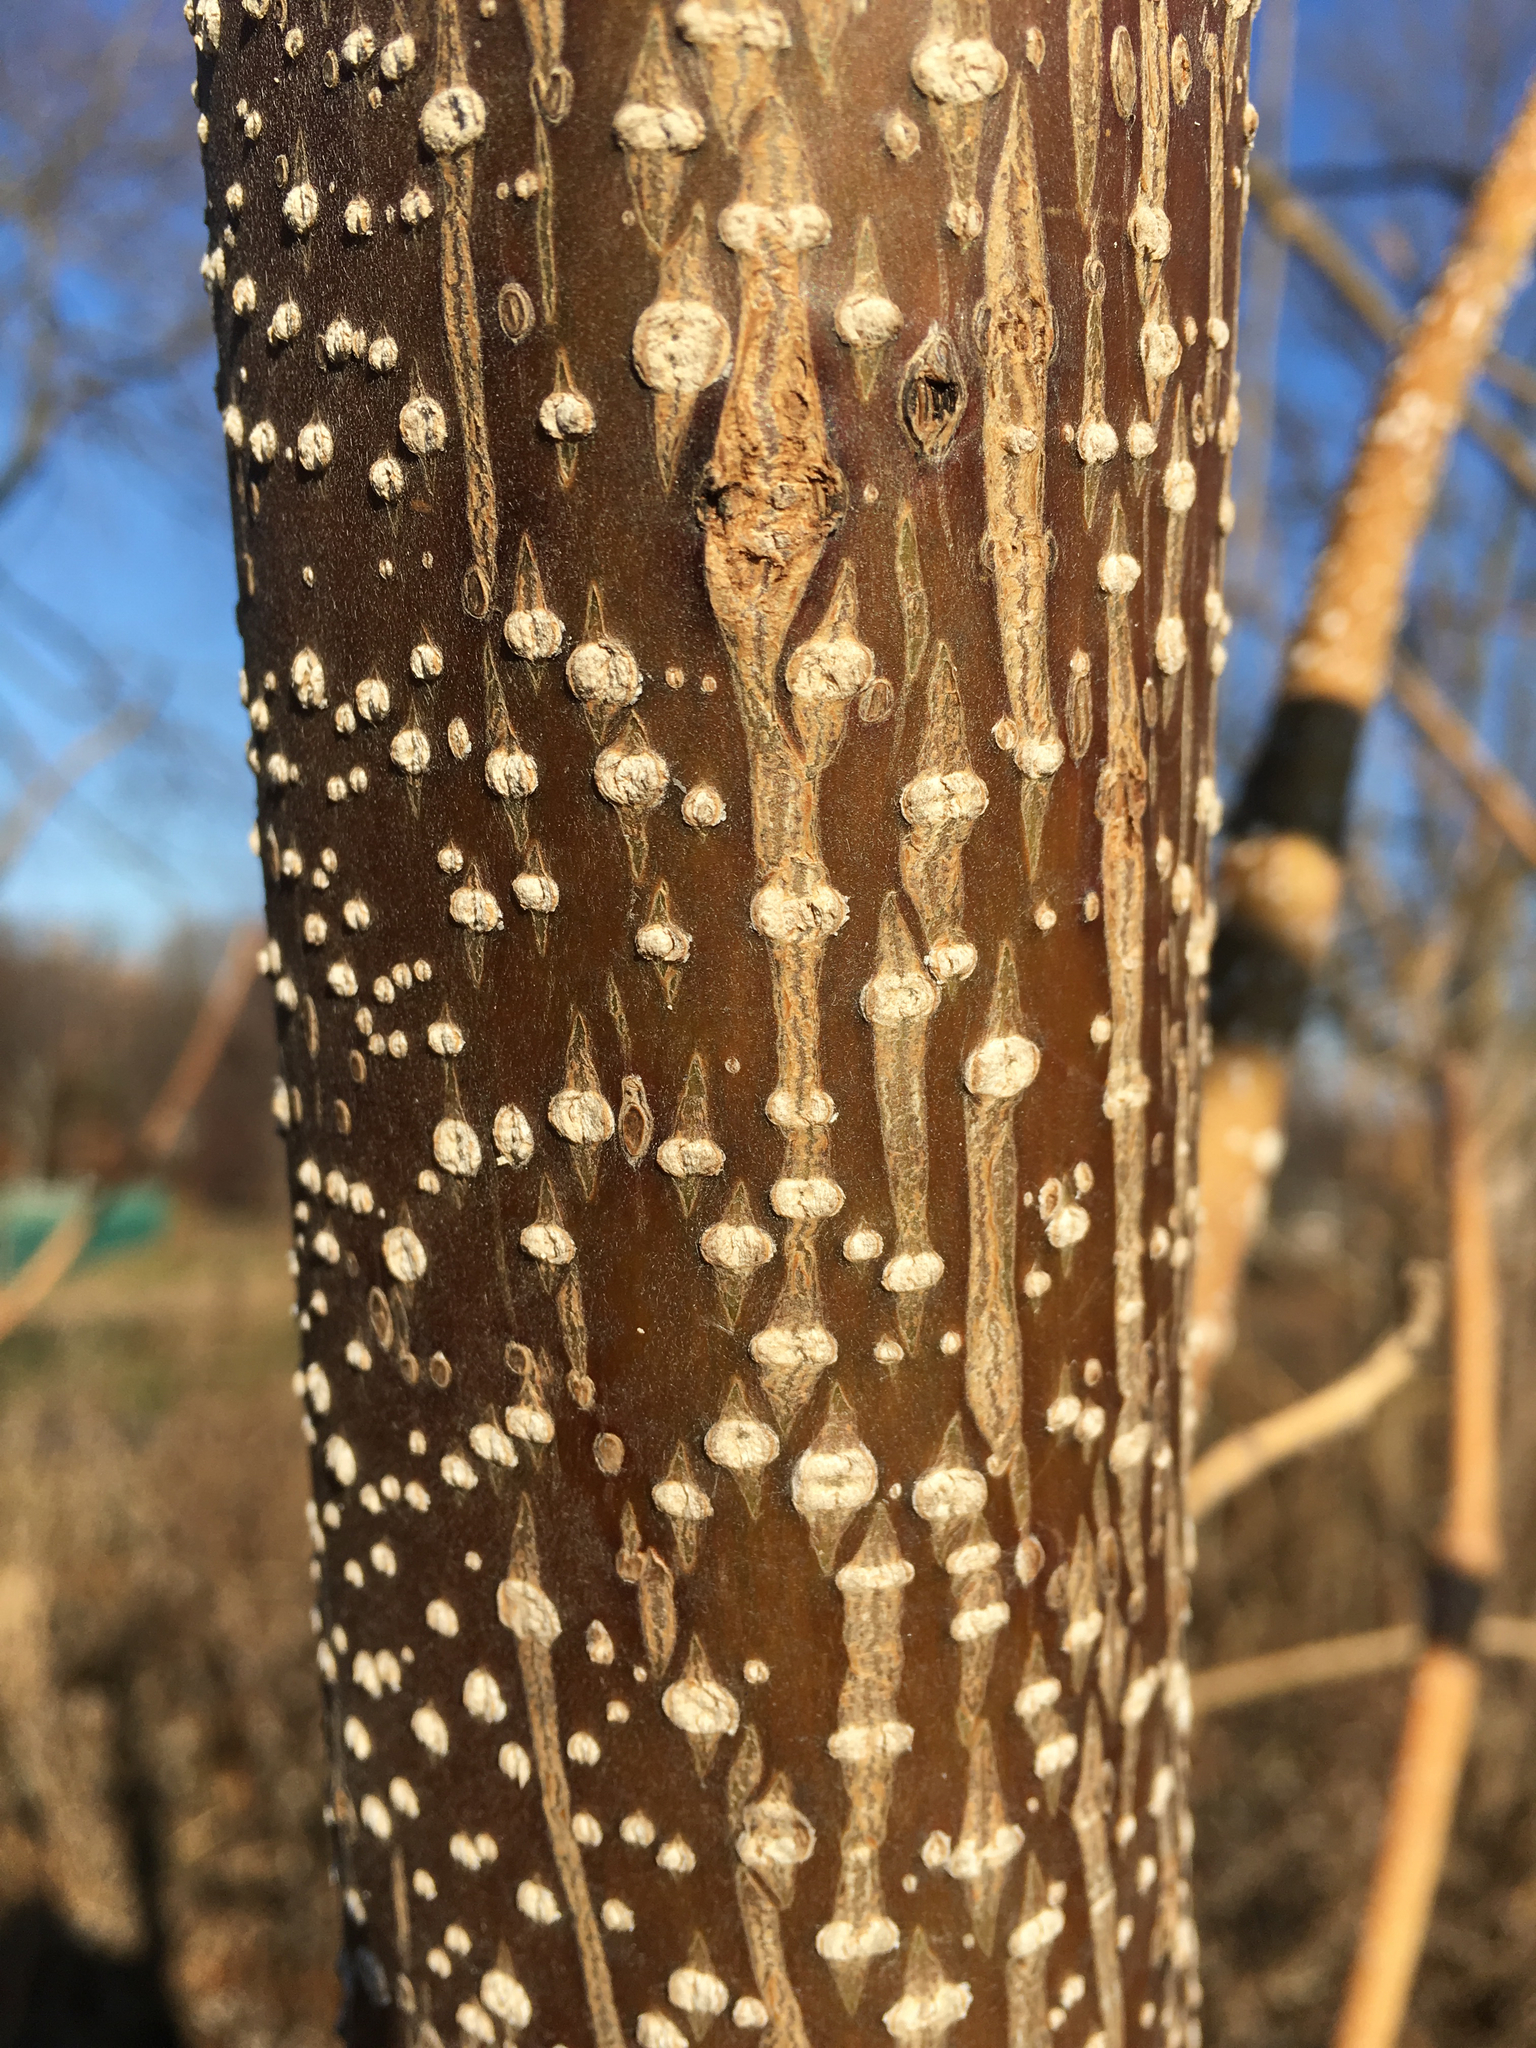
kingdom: Plantae
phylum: Tracheophyta
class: Magnoliopsida
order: Lamiales
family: Paulowniaceae
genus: Paulownia
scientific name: Paulownia tomentosa
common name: Foxglove-tree
